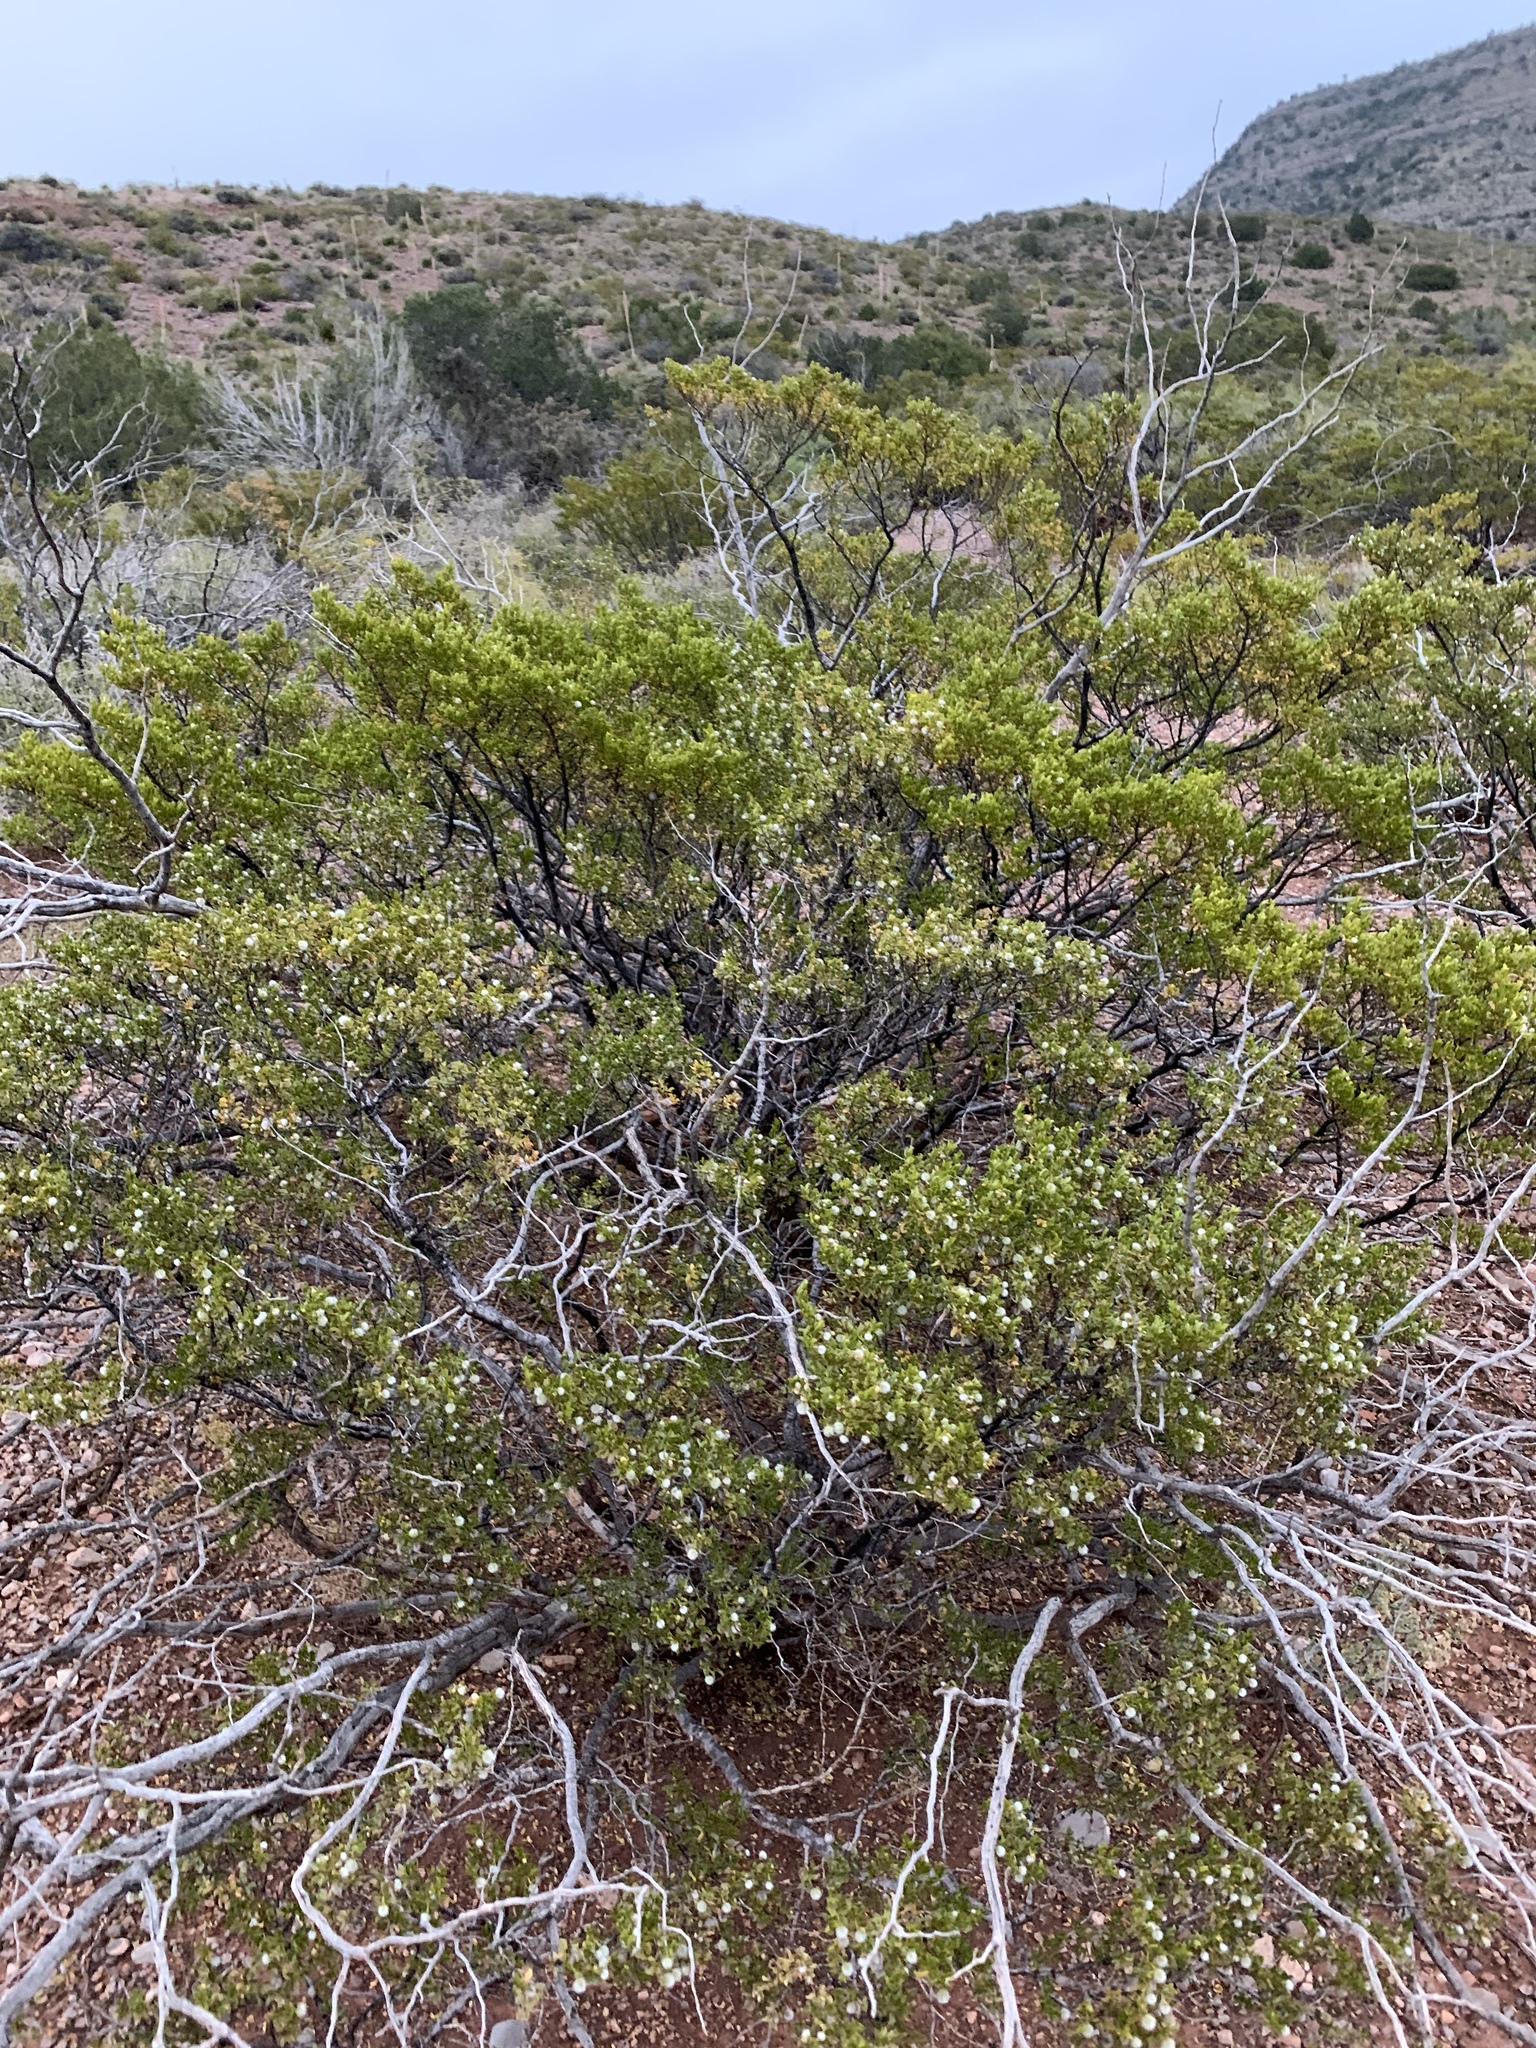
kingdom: Plantae
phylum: Tracheophyta
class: Magnoliopsida
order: Zygophyllales
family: Zygophyllaceae
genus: Larrea
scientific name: Larrea tridentata
